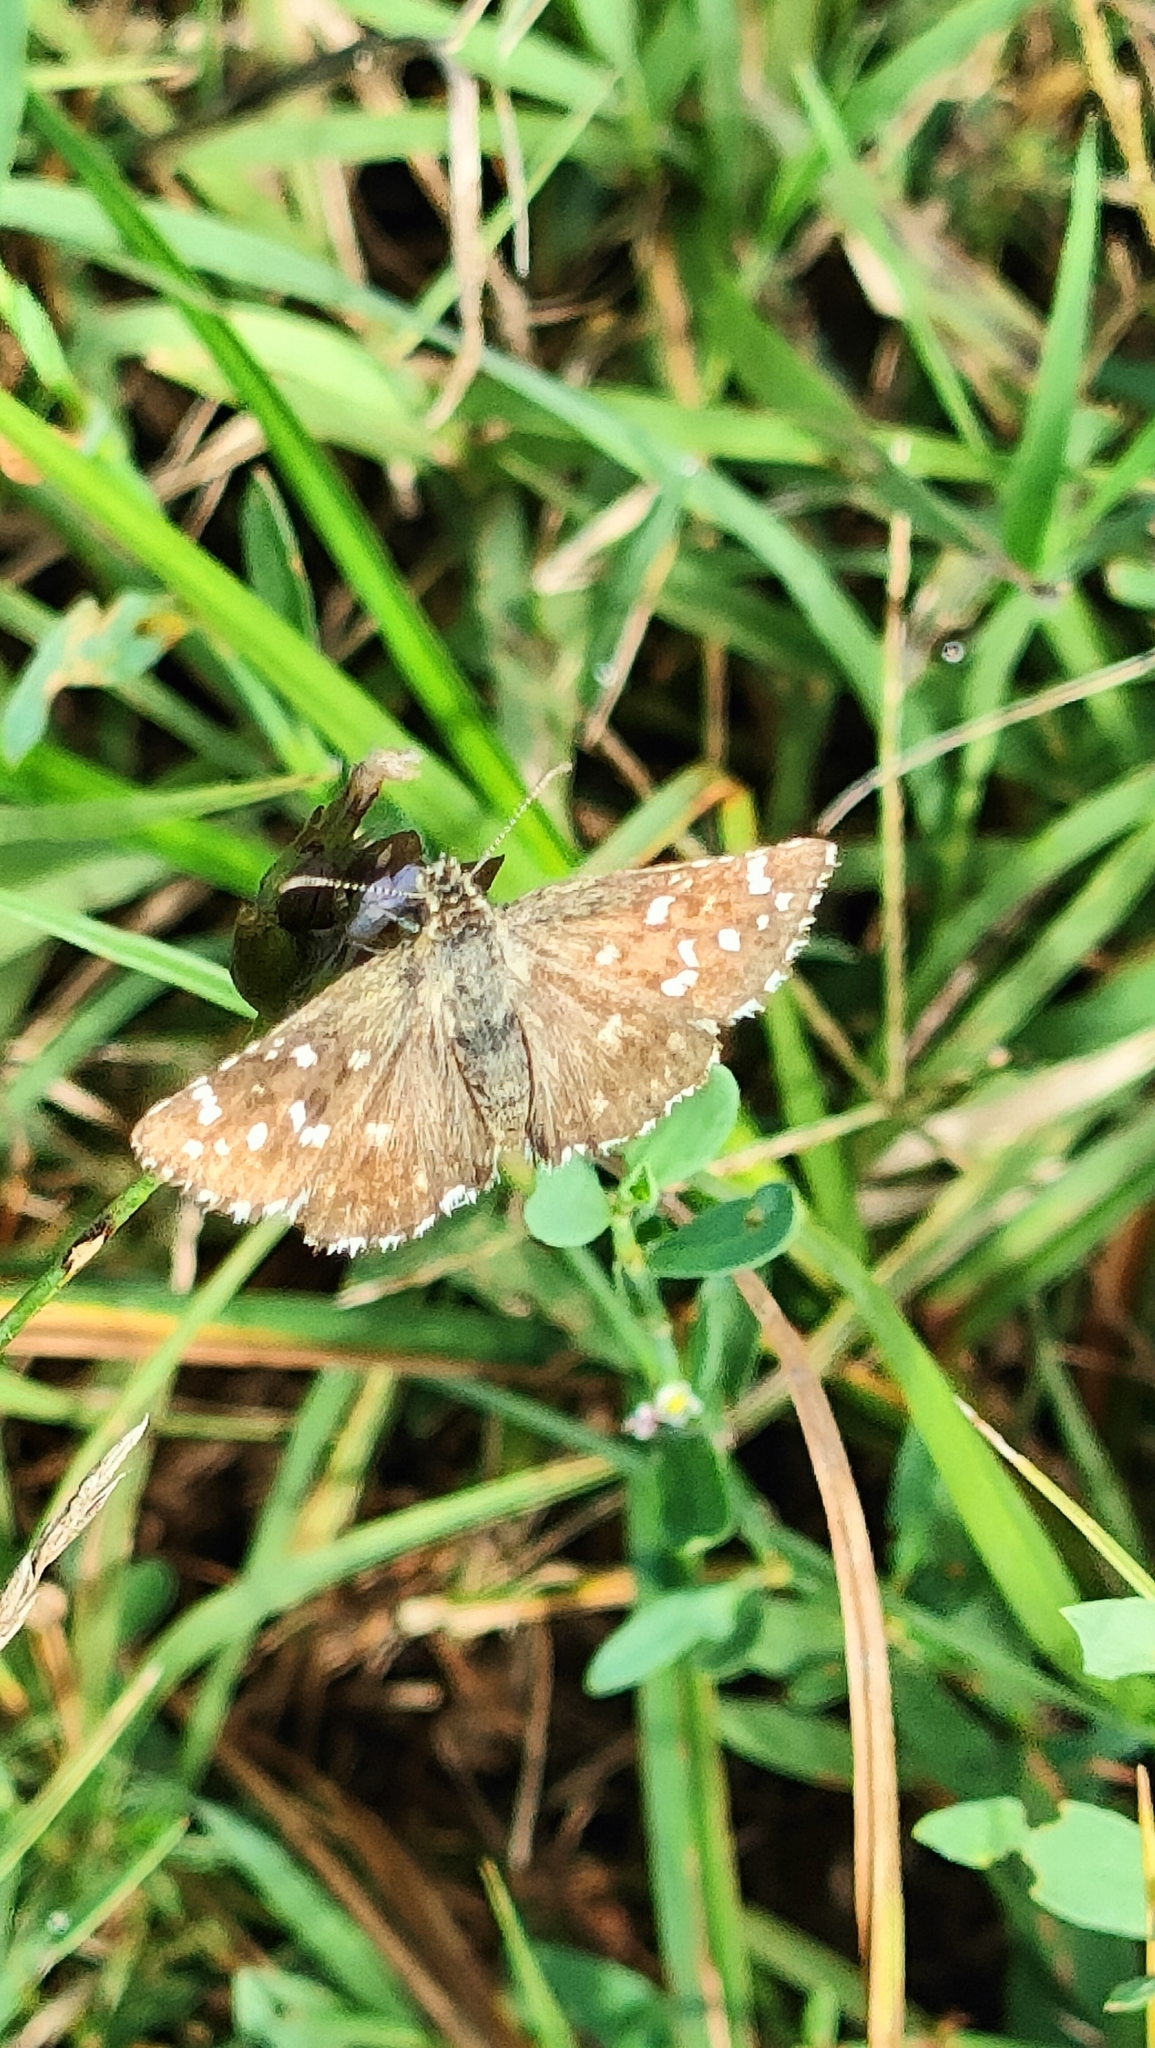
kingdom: Animalia
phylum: Arthropoda
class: Insecta
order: Lepidoptera
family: Hesperiidae
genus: Pyrgus
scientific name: Pyrgus malvoides
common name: Southern grizzled skipper
